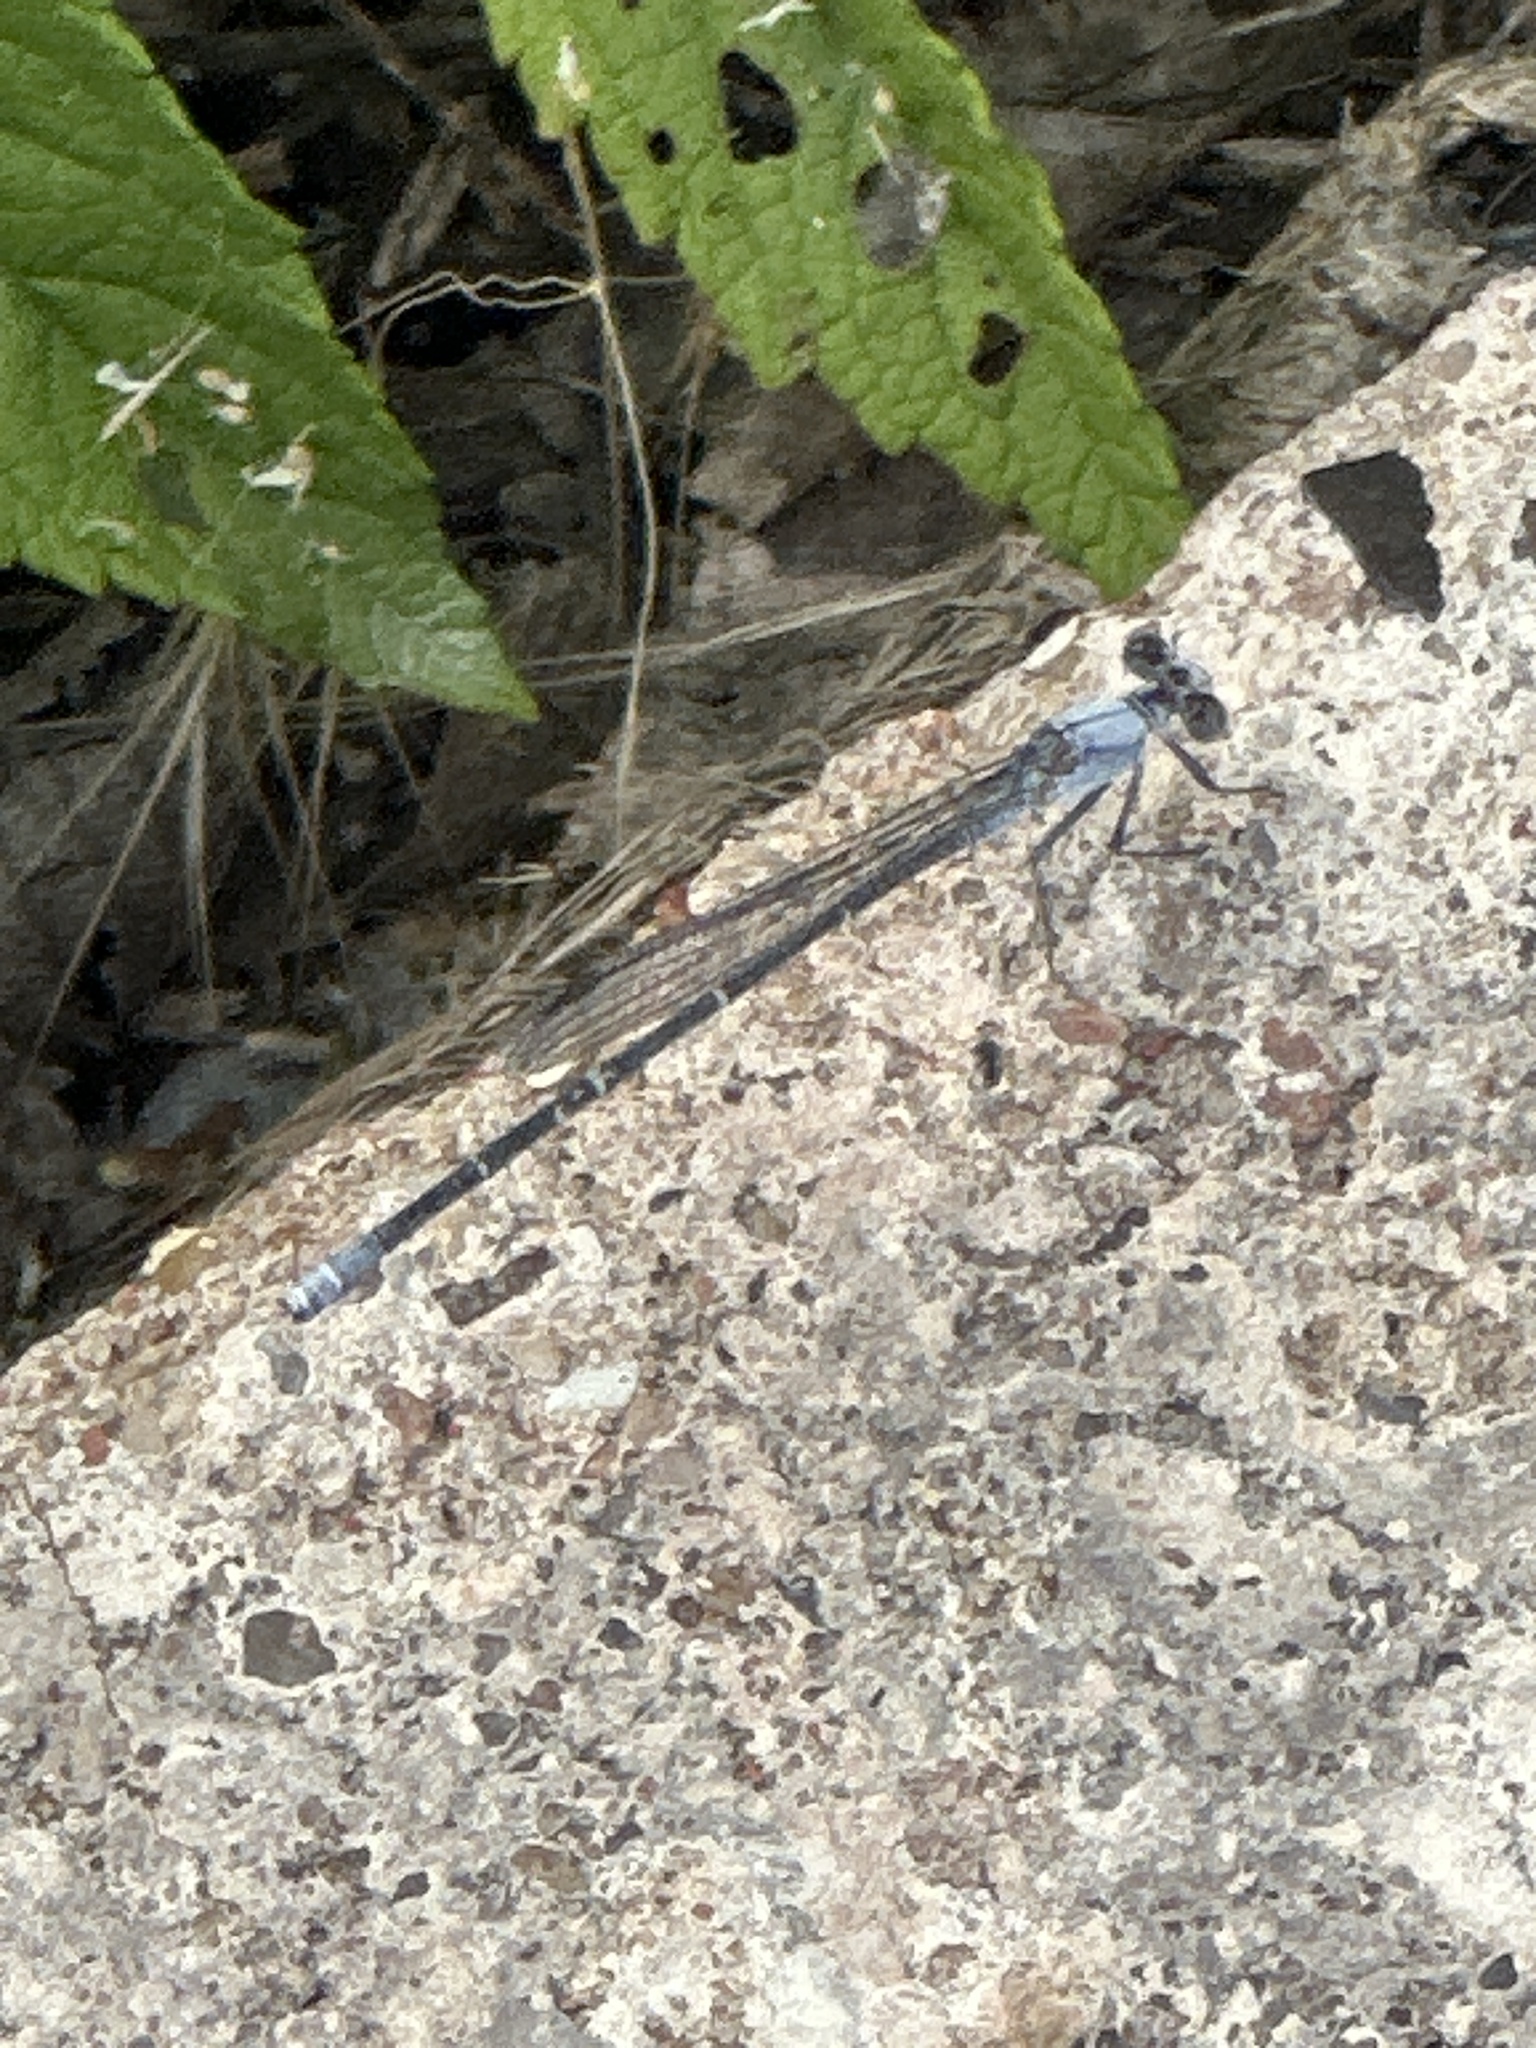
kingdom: Animalia
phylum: Arthropoda
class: Insecta
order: Odonata
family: Coenagrionidae
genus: Argia
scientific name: Argia moesta
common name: Powdered dancer
